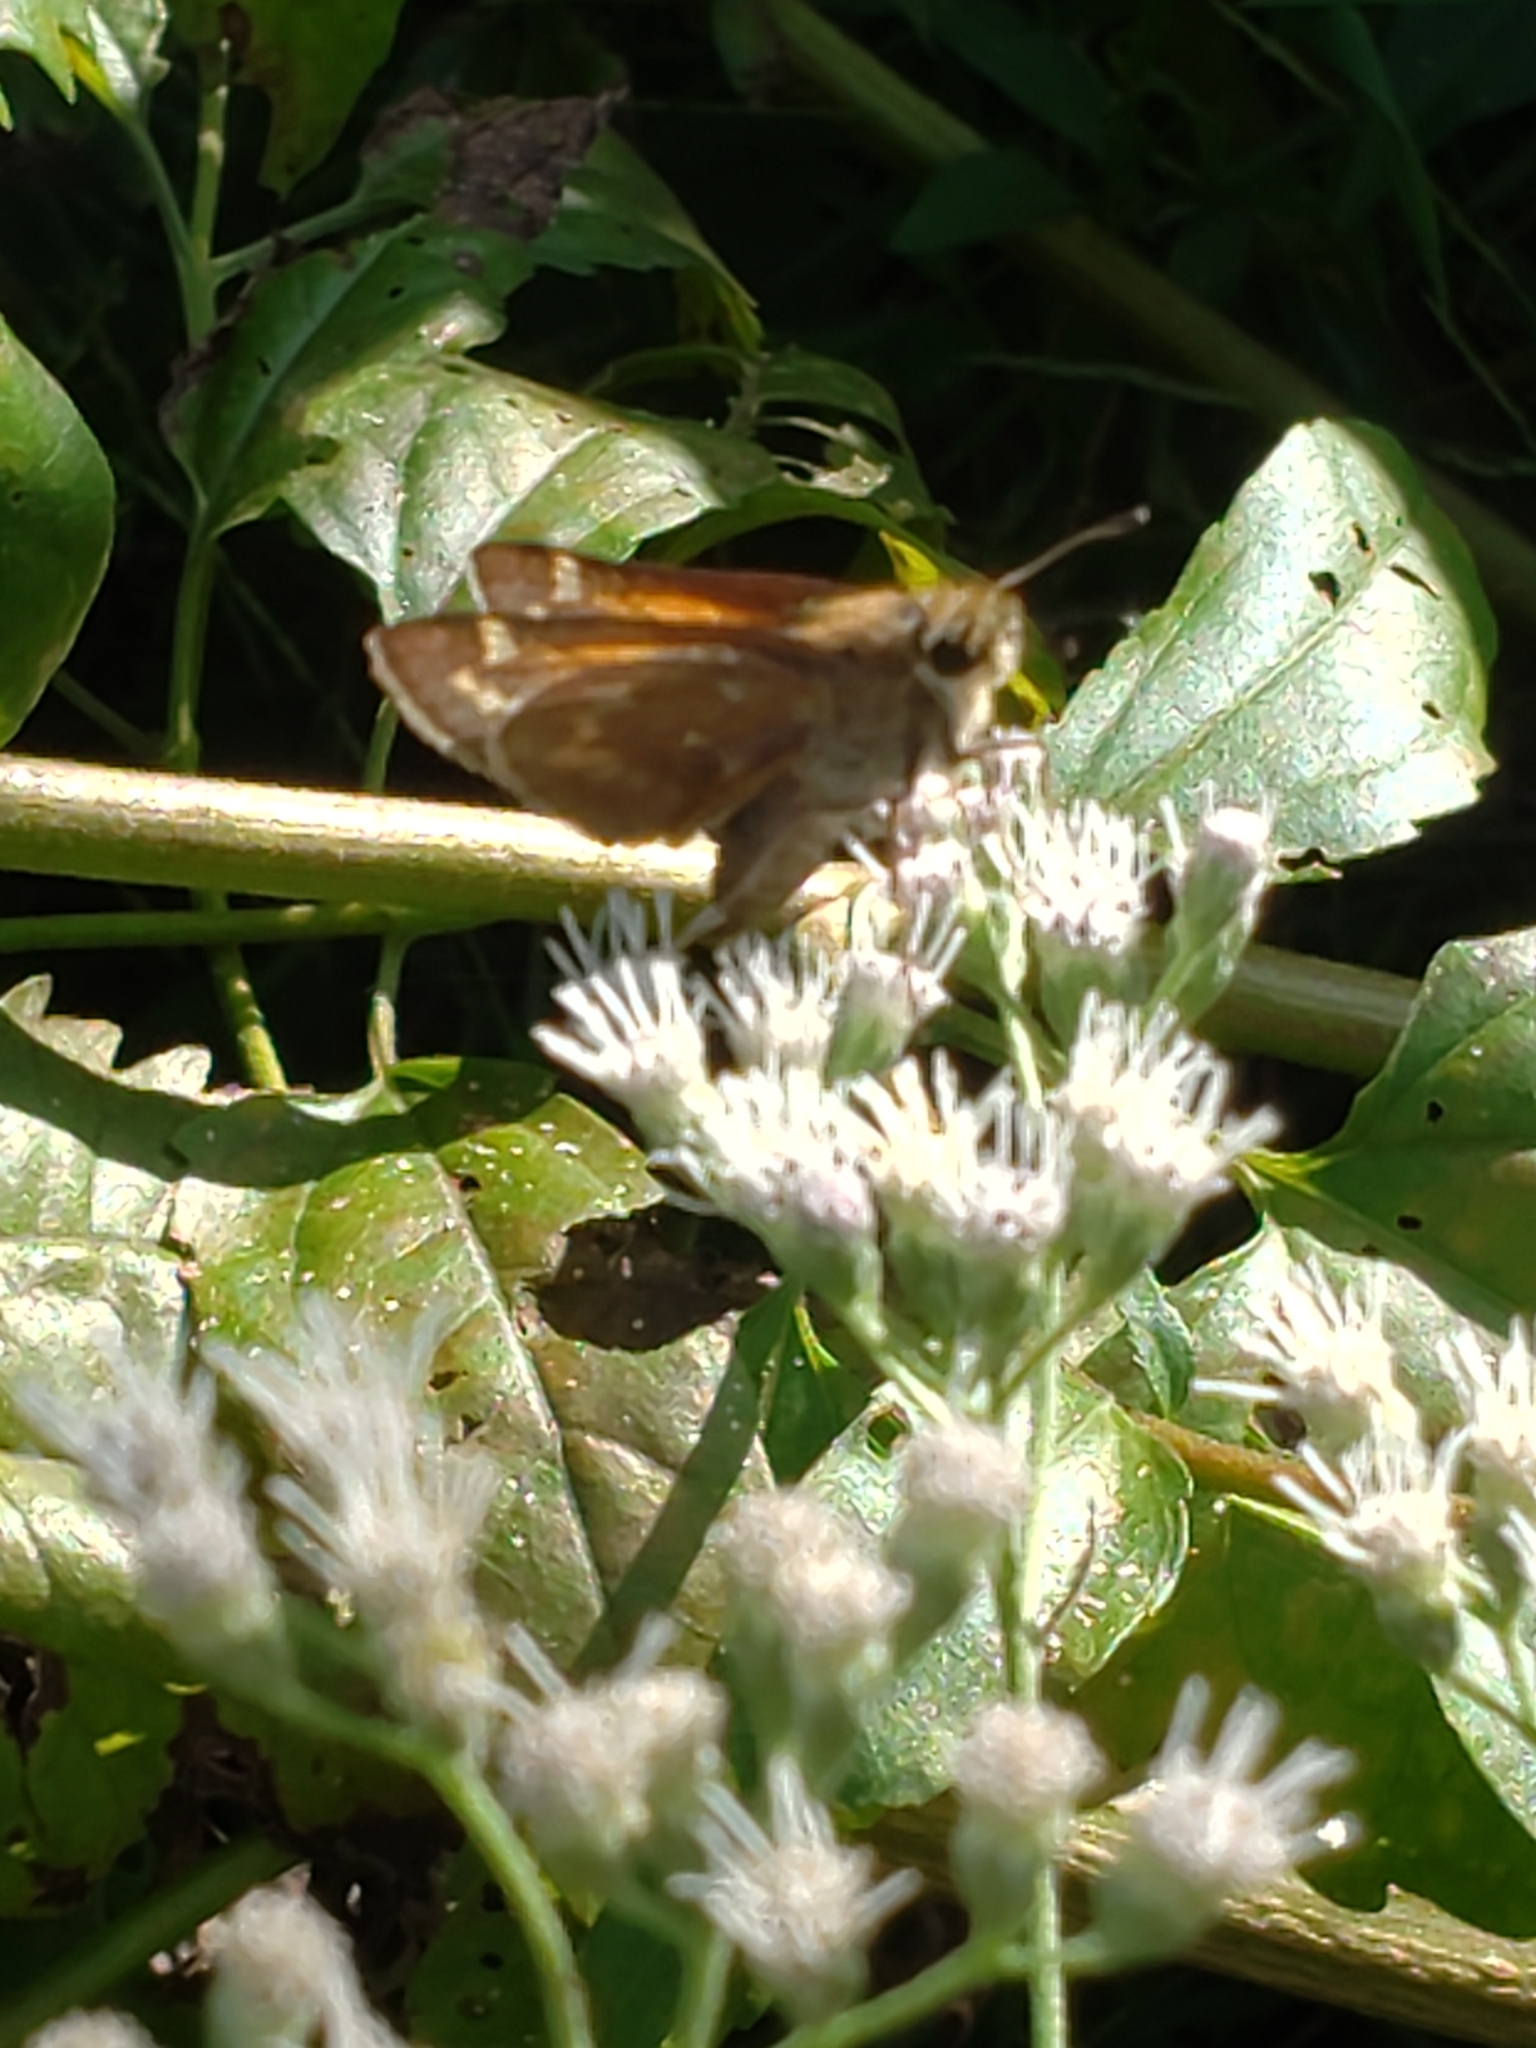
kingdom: Animalia
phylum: Arthropoda
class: Insecta
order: Lepidoptera
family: Hesperiidae
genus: Atalopedes
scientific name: Atalopedes
